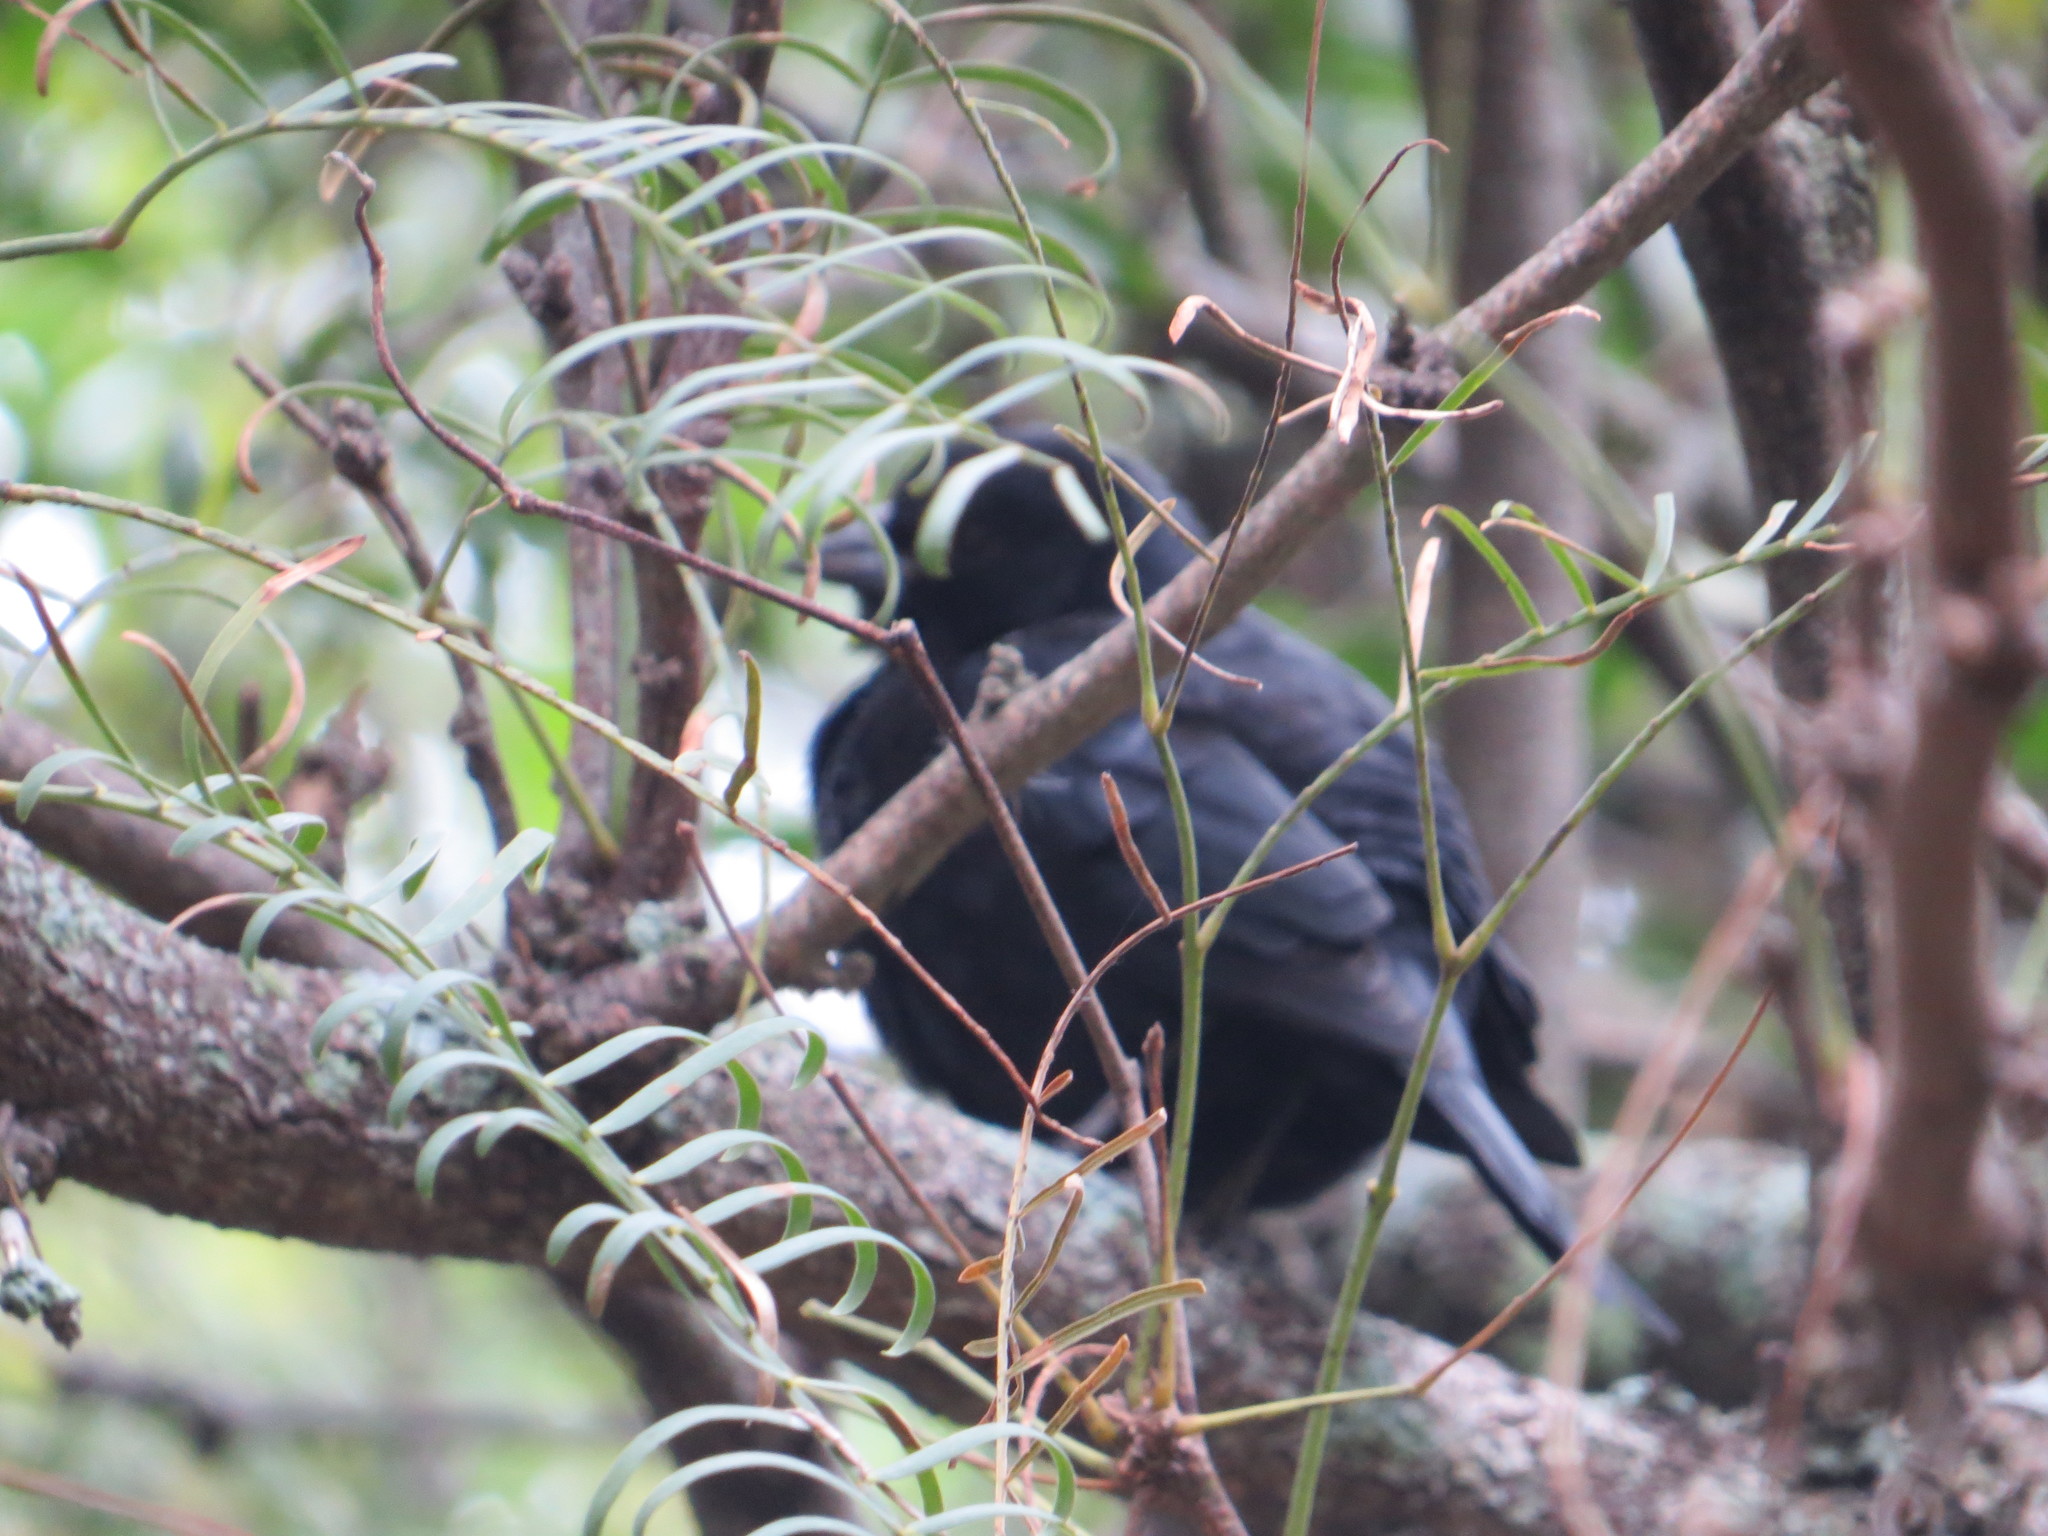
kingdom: Animalia
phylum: Chordata
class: Aves
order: Passeriformes
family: Icteridae
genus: Molothrus
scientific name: Molothrus rufoaxillaris
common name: Screaming cowbird
